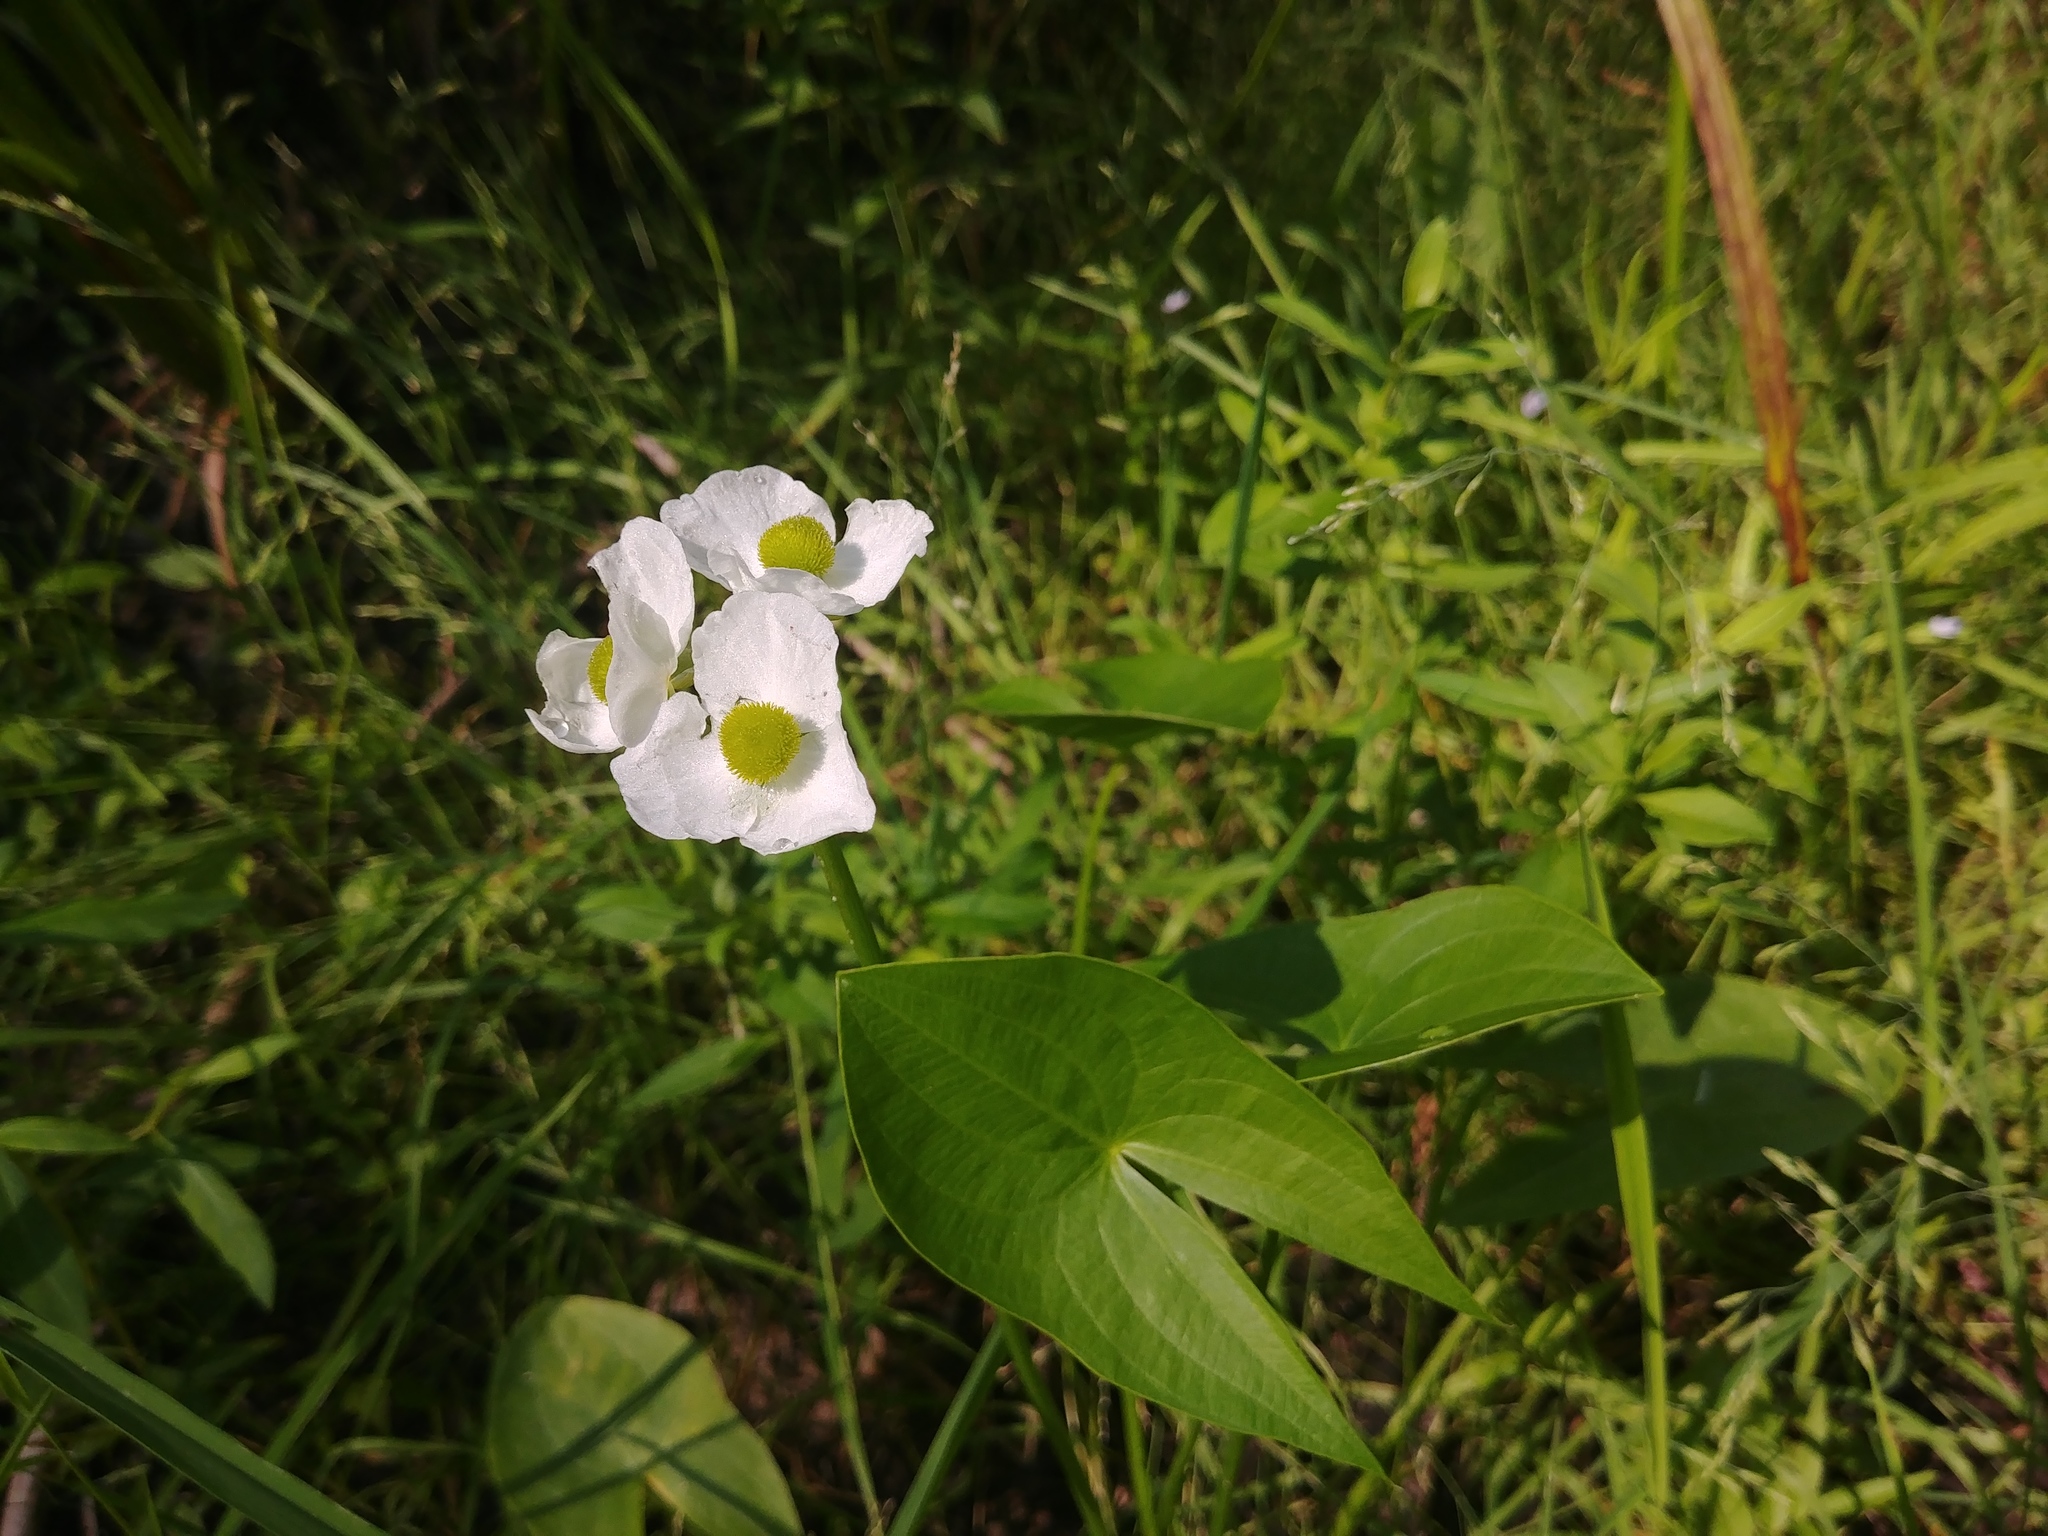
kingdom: Plantae
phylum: Tracheophyta
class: Liliopsida
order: Alismatales
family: Alismataceae
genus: Sagittaria
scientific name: Sagittaria latifolia
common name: Duck-potato
